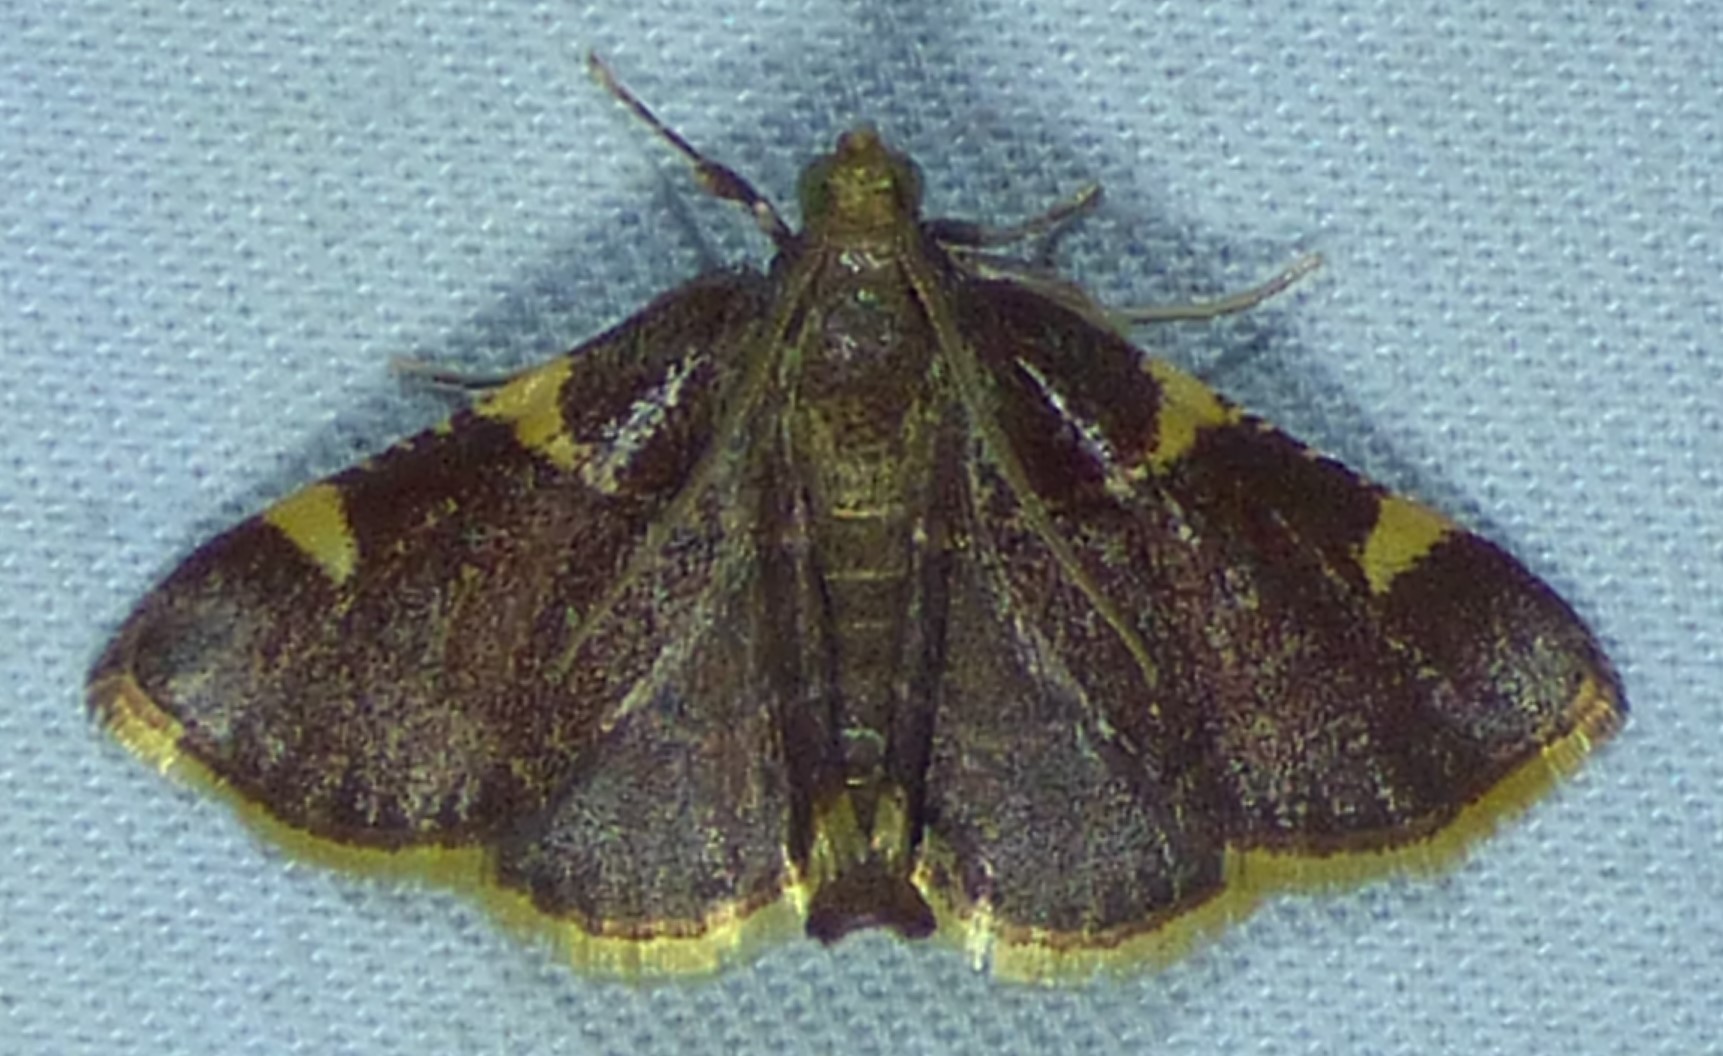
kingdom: Animalia
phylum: Arthropoda
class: Insecta
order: Lepidoptera
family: Pyralidae
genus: Hypsopygia
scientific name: Hypsopygia olinalis
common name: Yellow-fringed dolichomia moth
